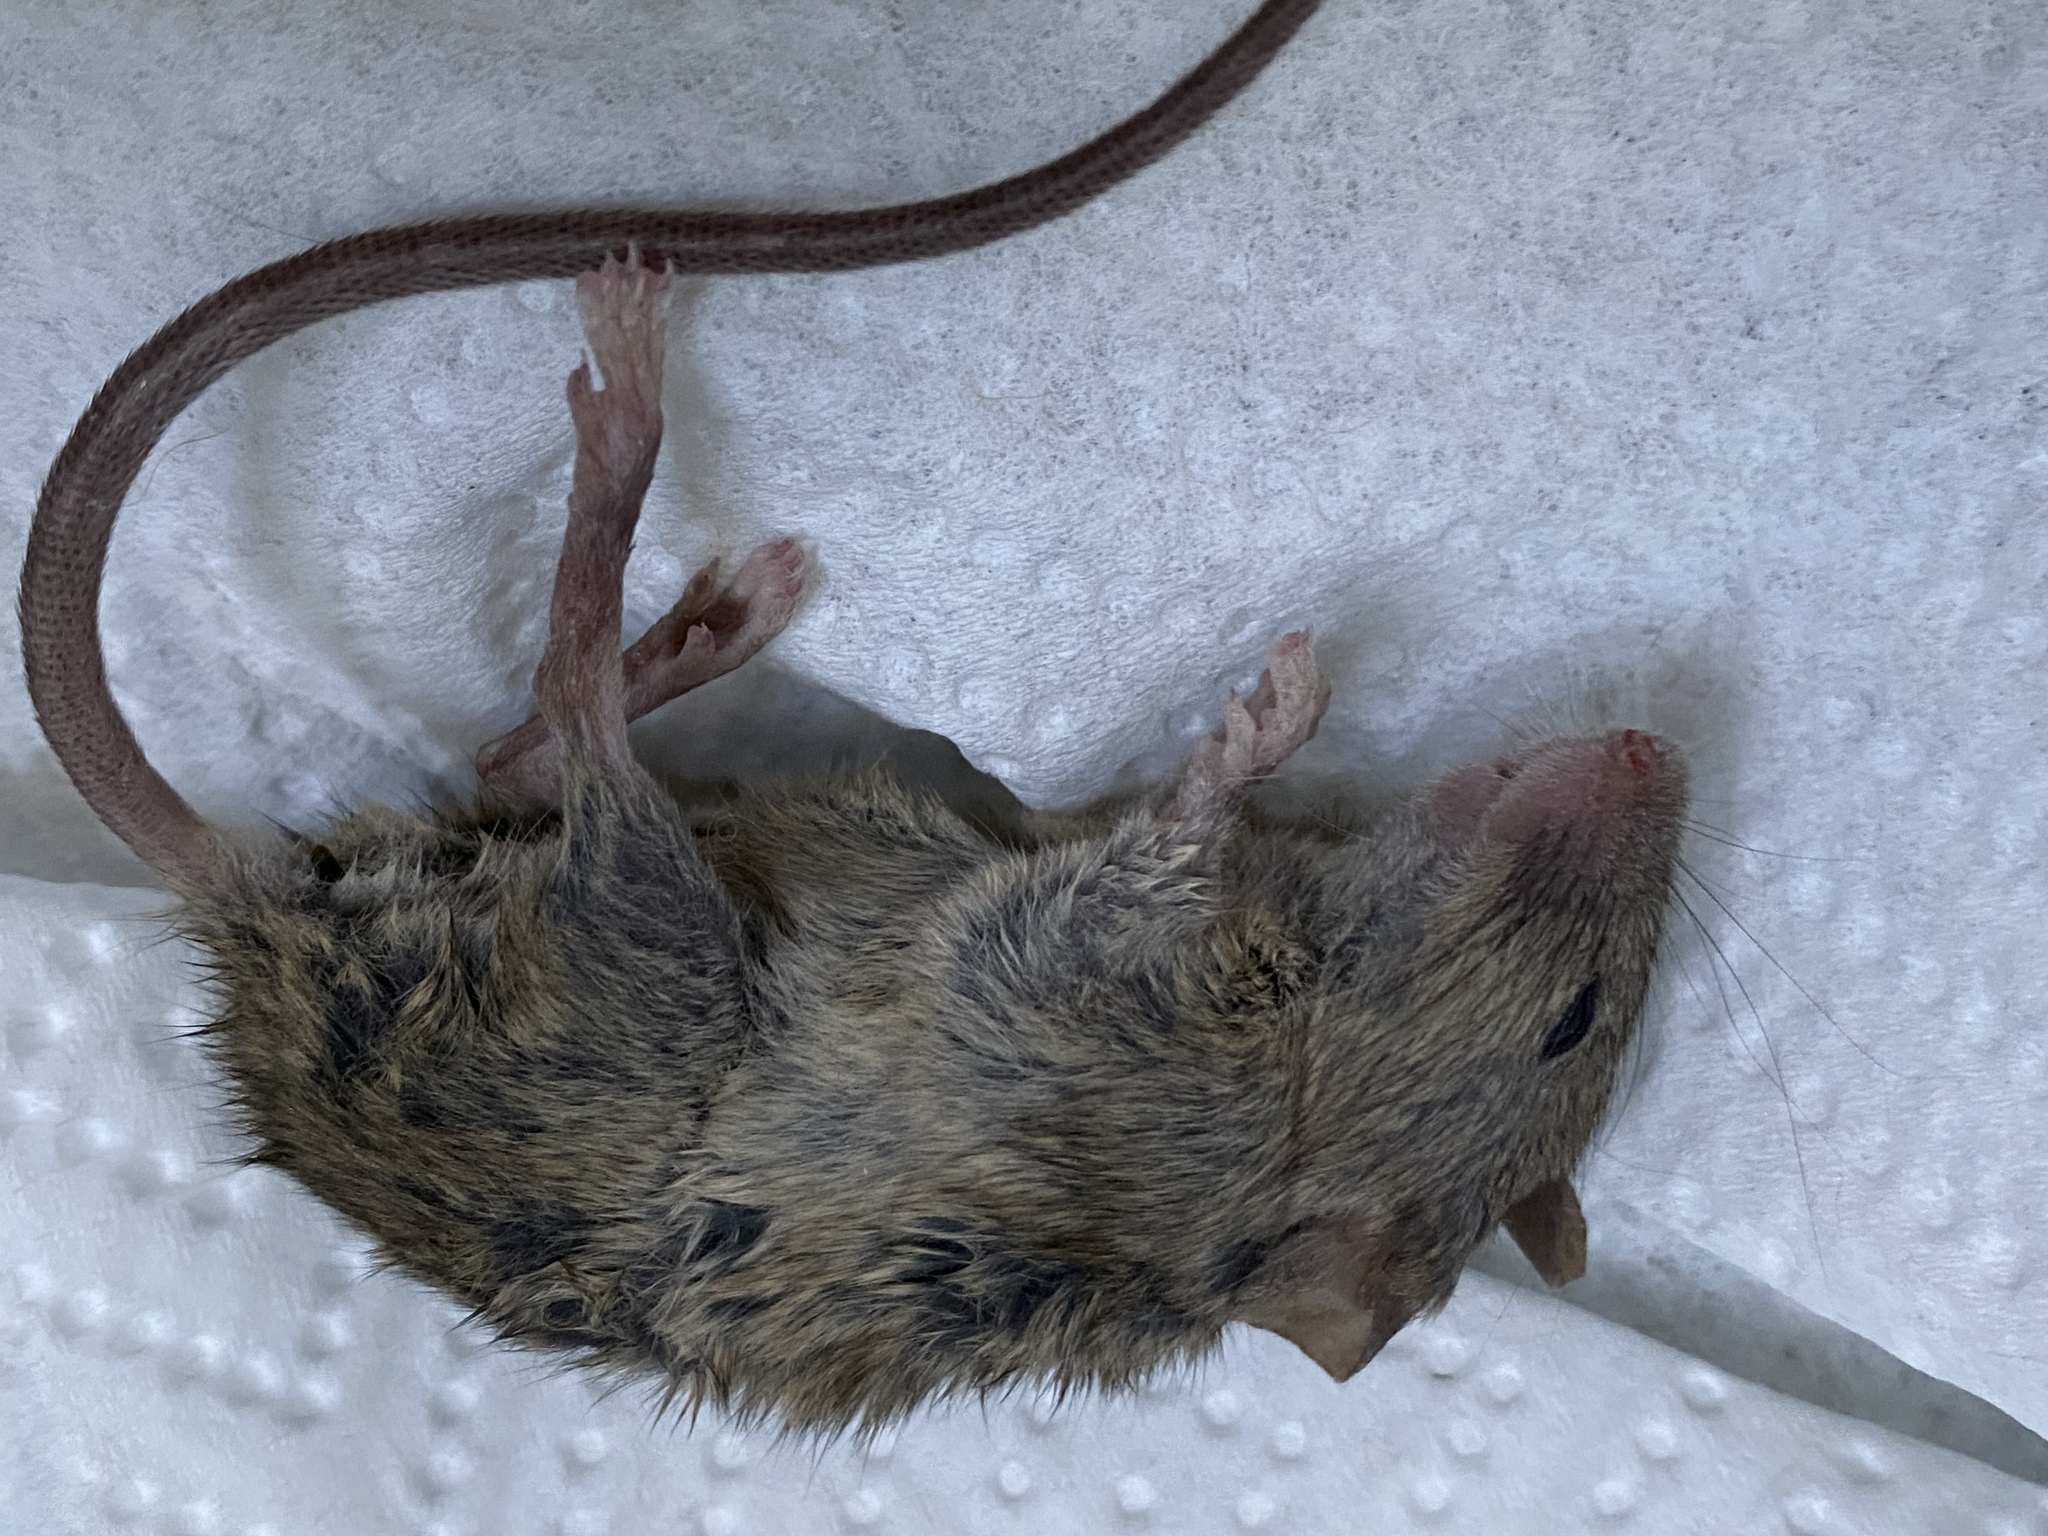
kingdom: Animalia
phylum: Chordata
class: Mammalia
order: Rodentia
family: Muridae
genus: Mus
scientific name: Mus musculus
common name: House mouse
